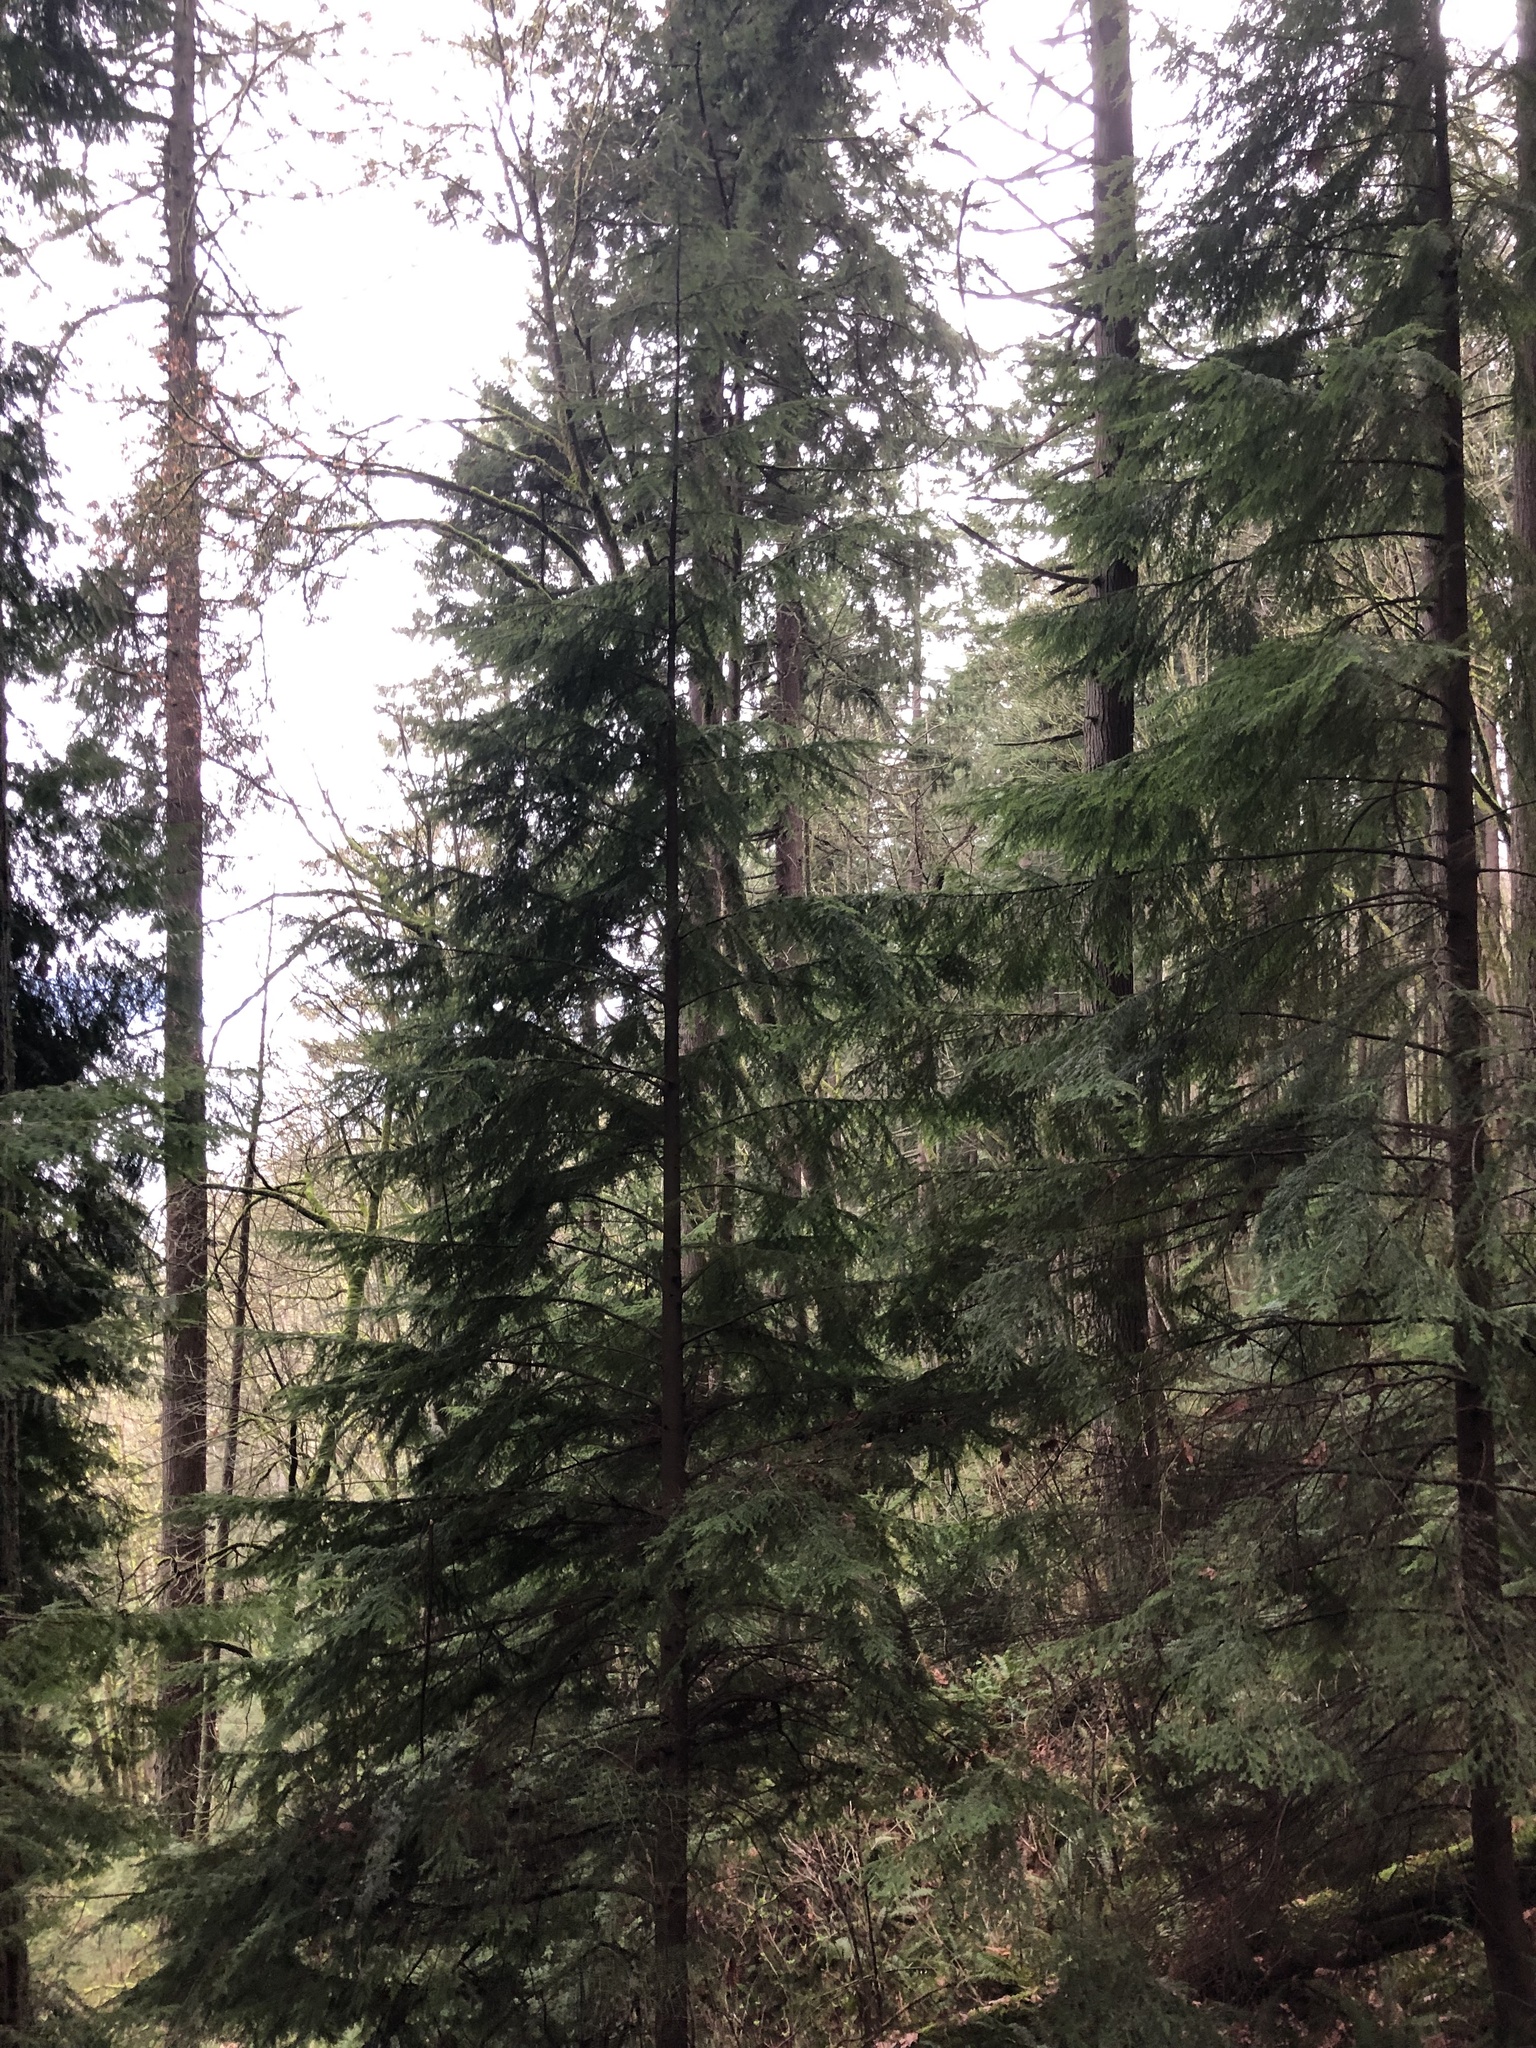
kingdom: Plantae
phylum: Tracheophyta
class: Pinopsida
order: Pinales
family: Pinaceae
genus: Tsuga
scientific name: Tsuga heterophylla
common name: Western hemlock
